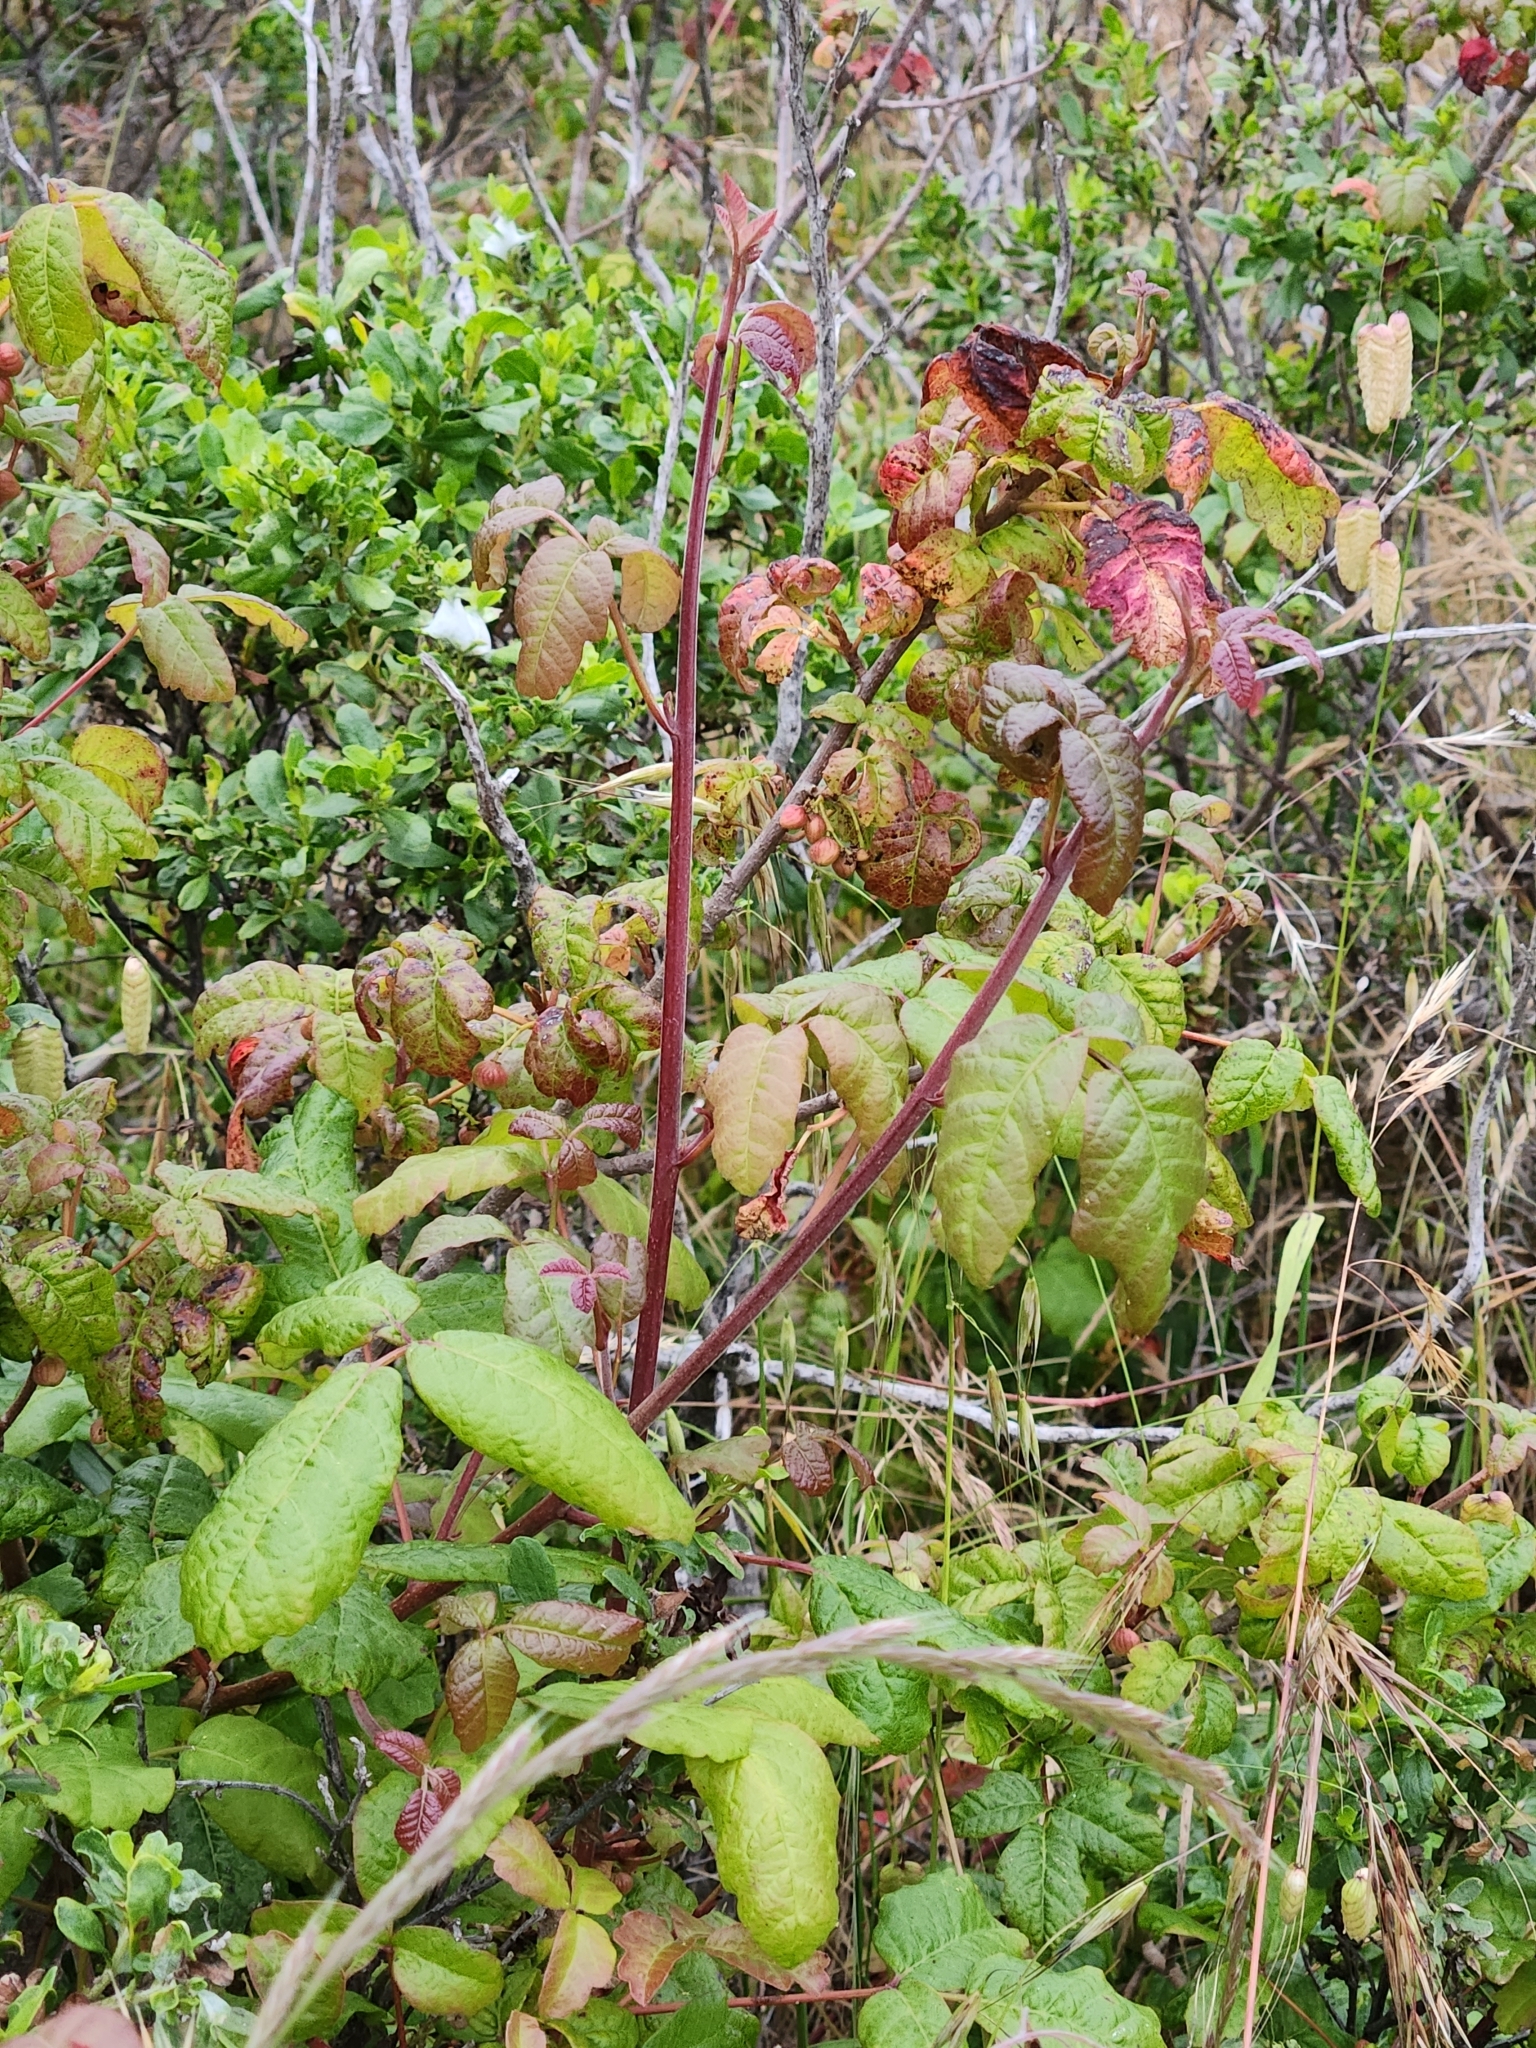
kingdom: Plantae
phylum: Tracheophyta
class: Magnoliopsida
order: Sapindales
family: Anacardiaceae
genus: Toxicodendron
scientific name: Toxicodendron diversilobum
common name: Pacific poison-oak
